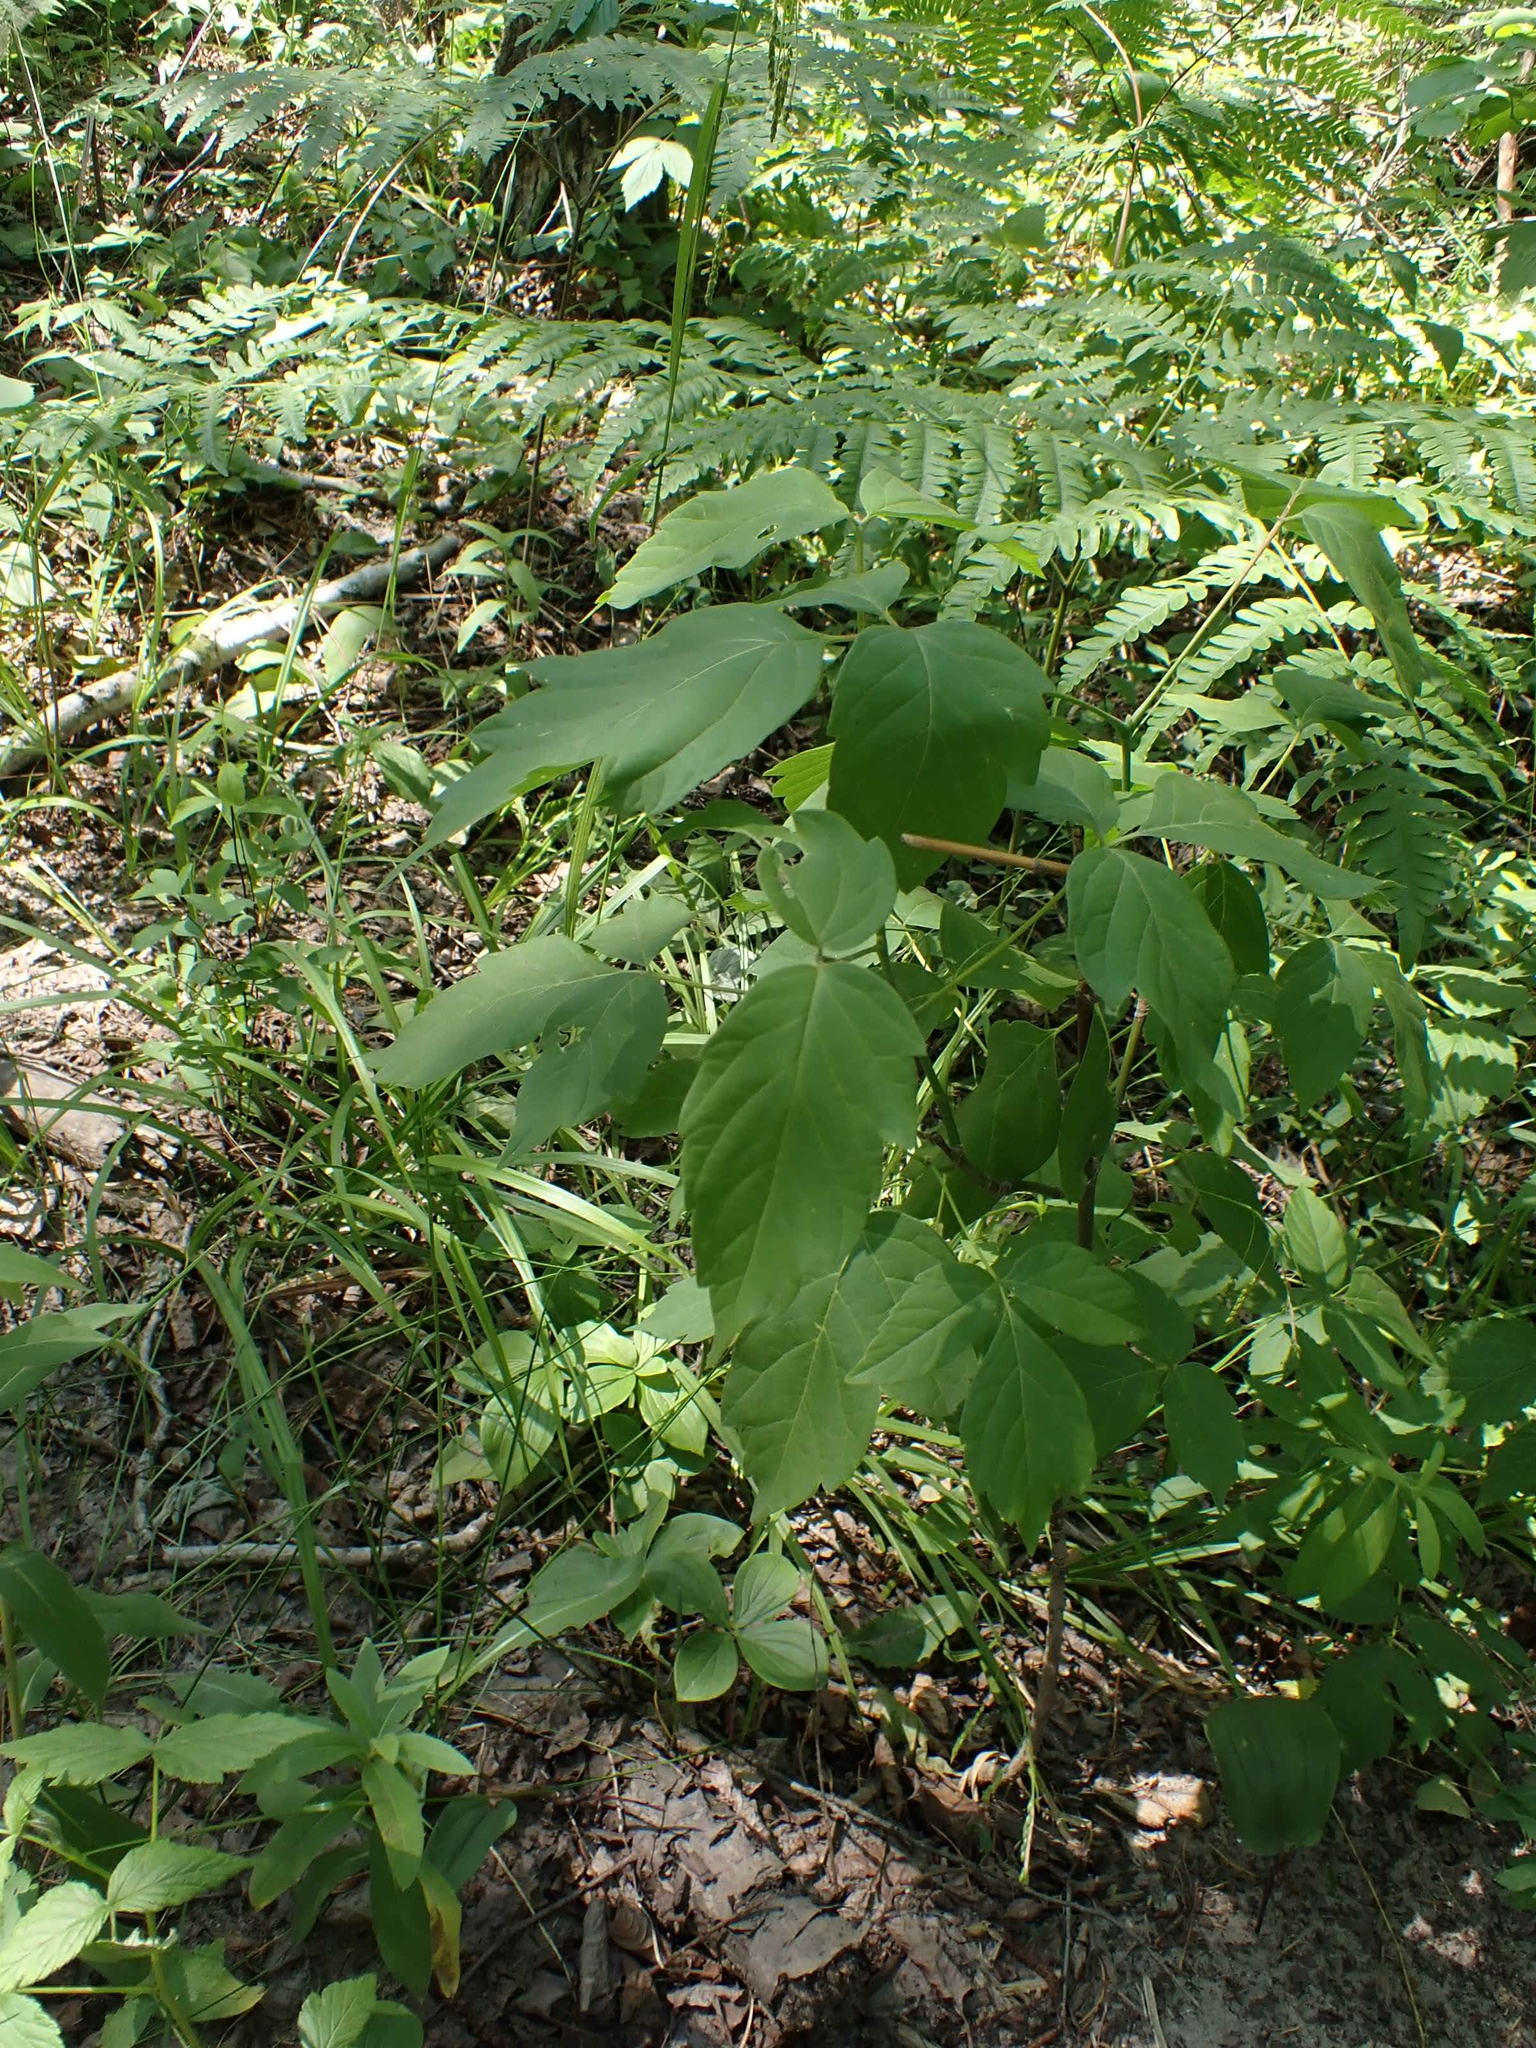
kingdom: Plantae
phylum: Tracheophyta
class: Magnoliopsida
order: Sapindales
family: Sapindaceae
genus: Acer
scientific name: Acer negundo
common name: Ashleaf maple
